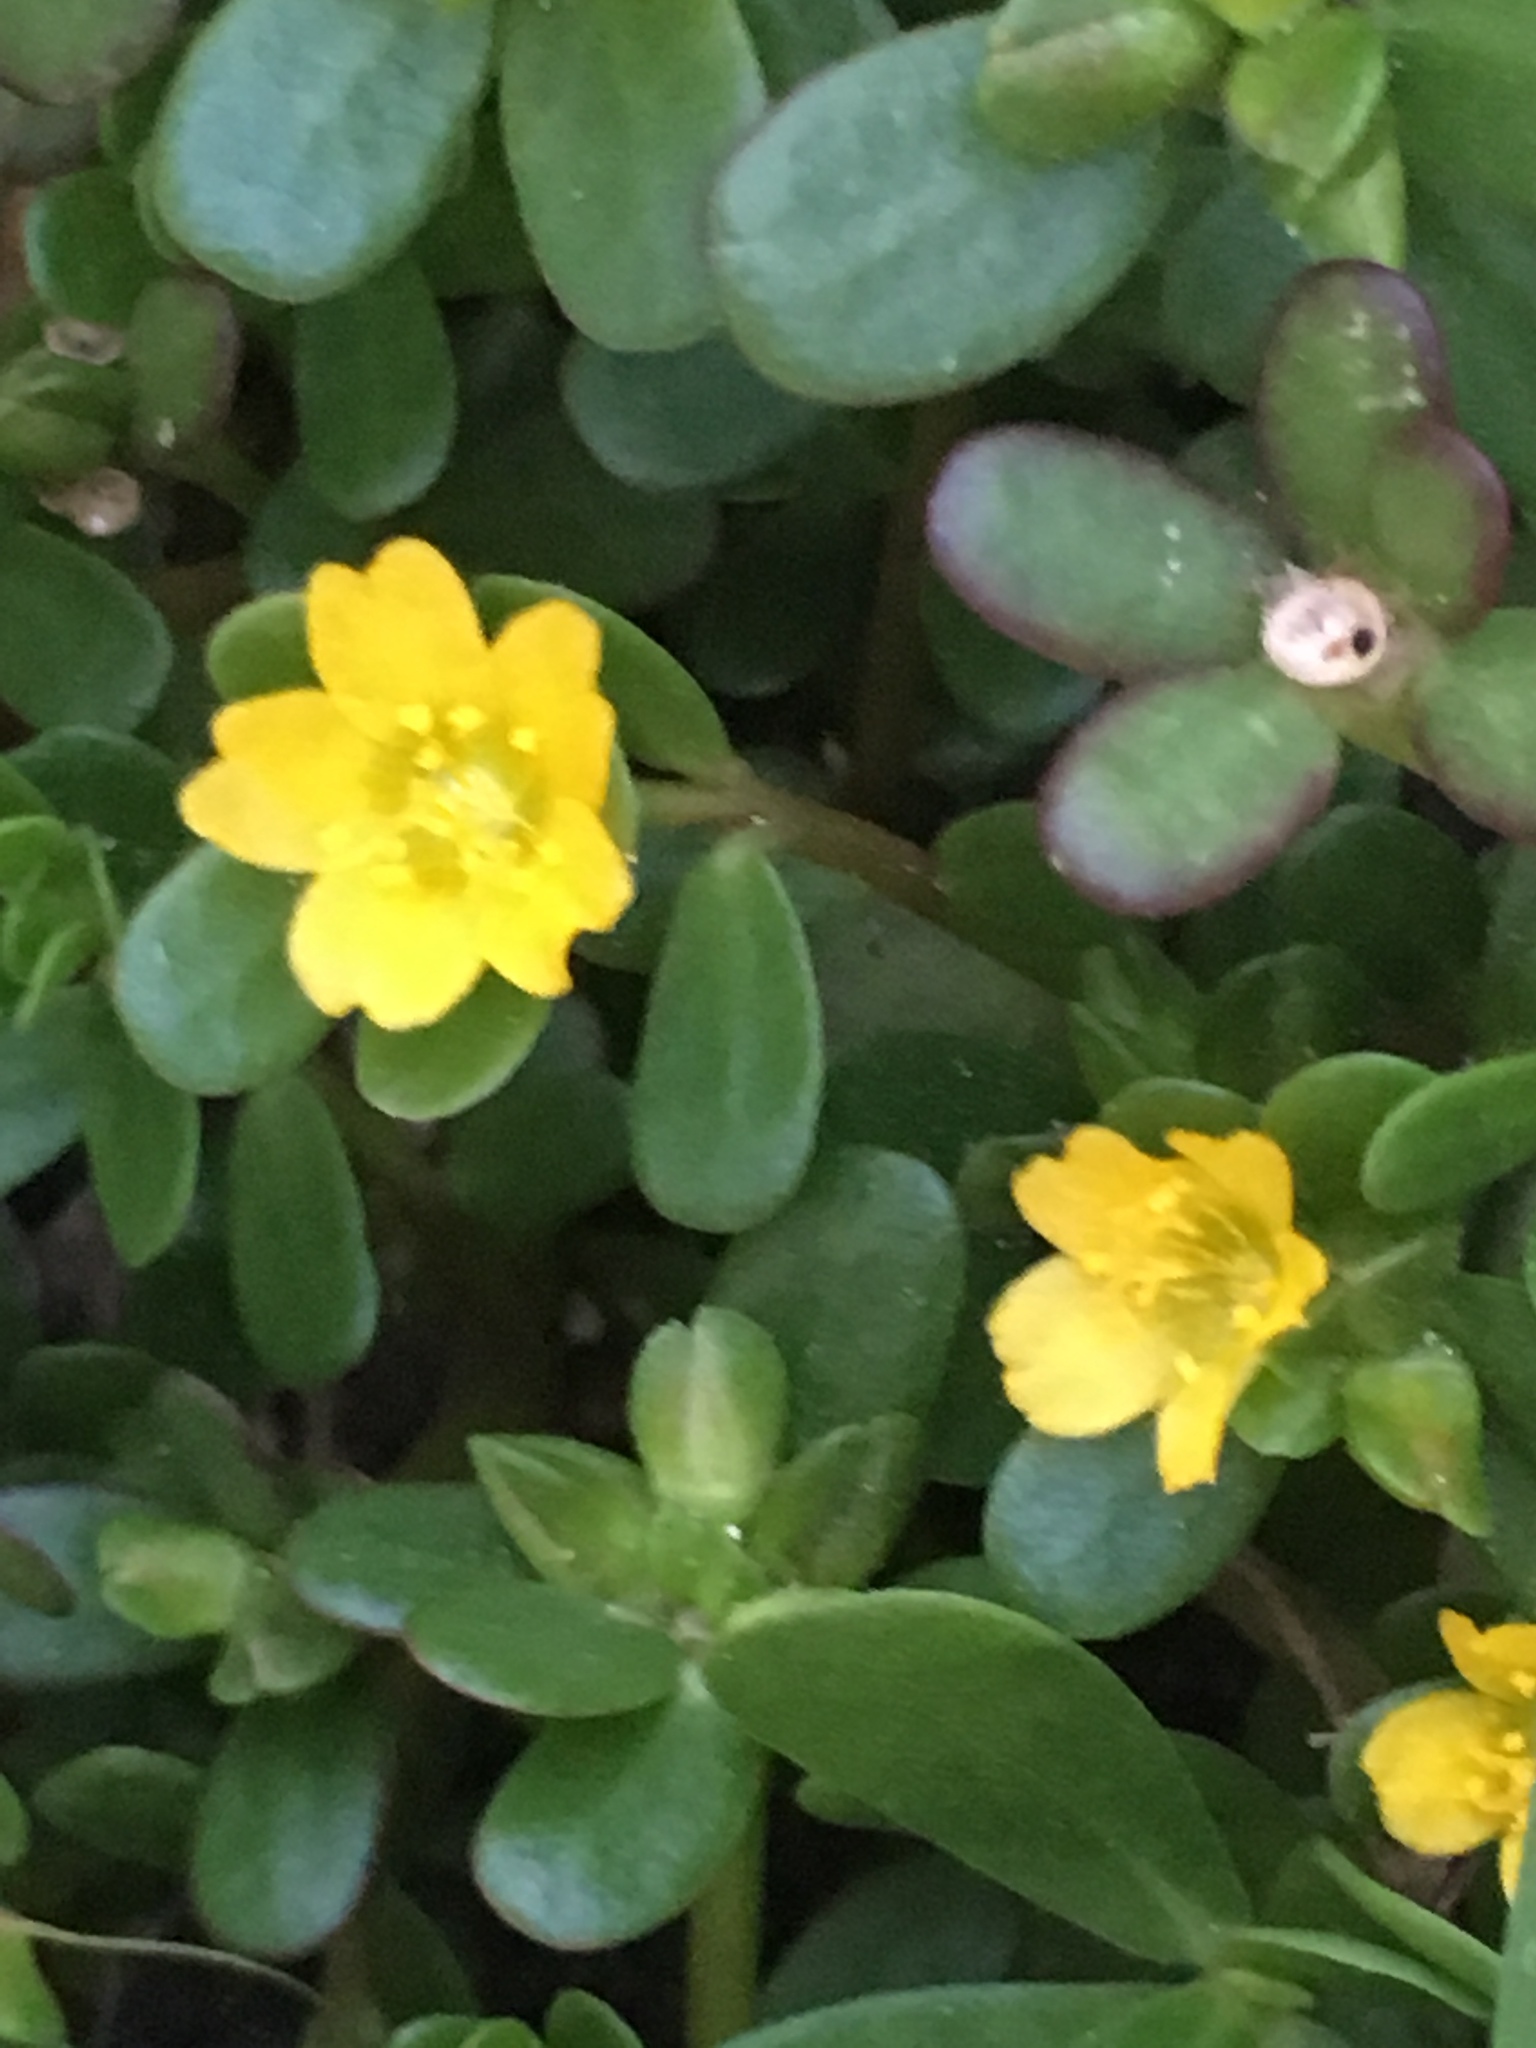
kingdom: Plantae
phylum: Tracheophyta
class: Magnoliopsida
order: Caryophyllales
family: Portulacaceae
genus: Portulaca
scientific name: Portulaca oleracea
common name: Common purslane
